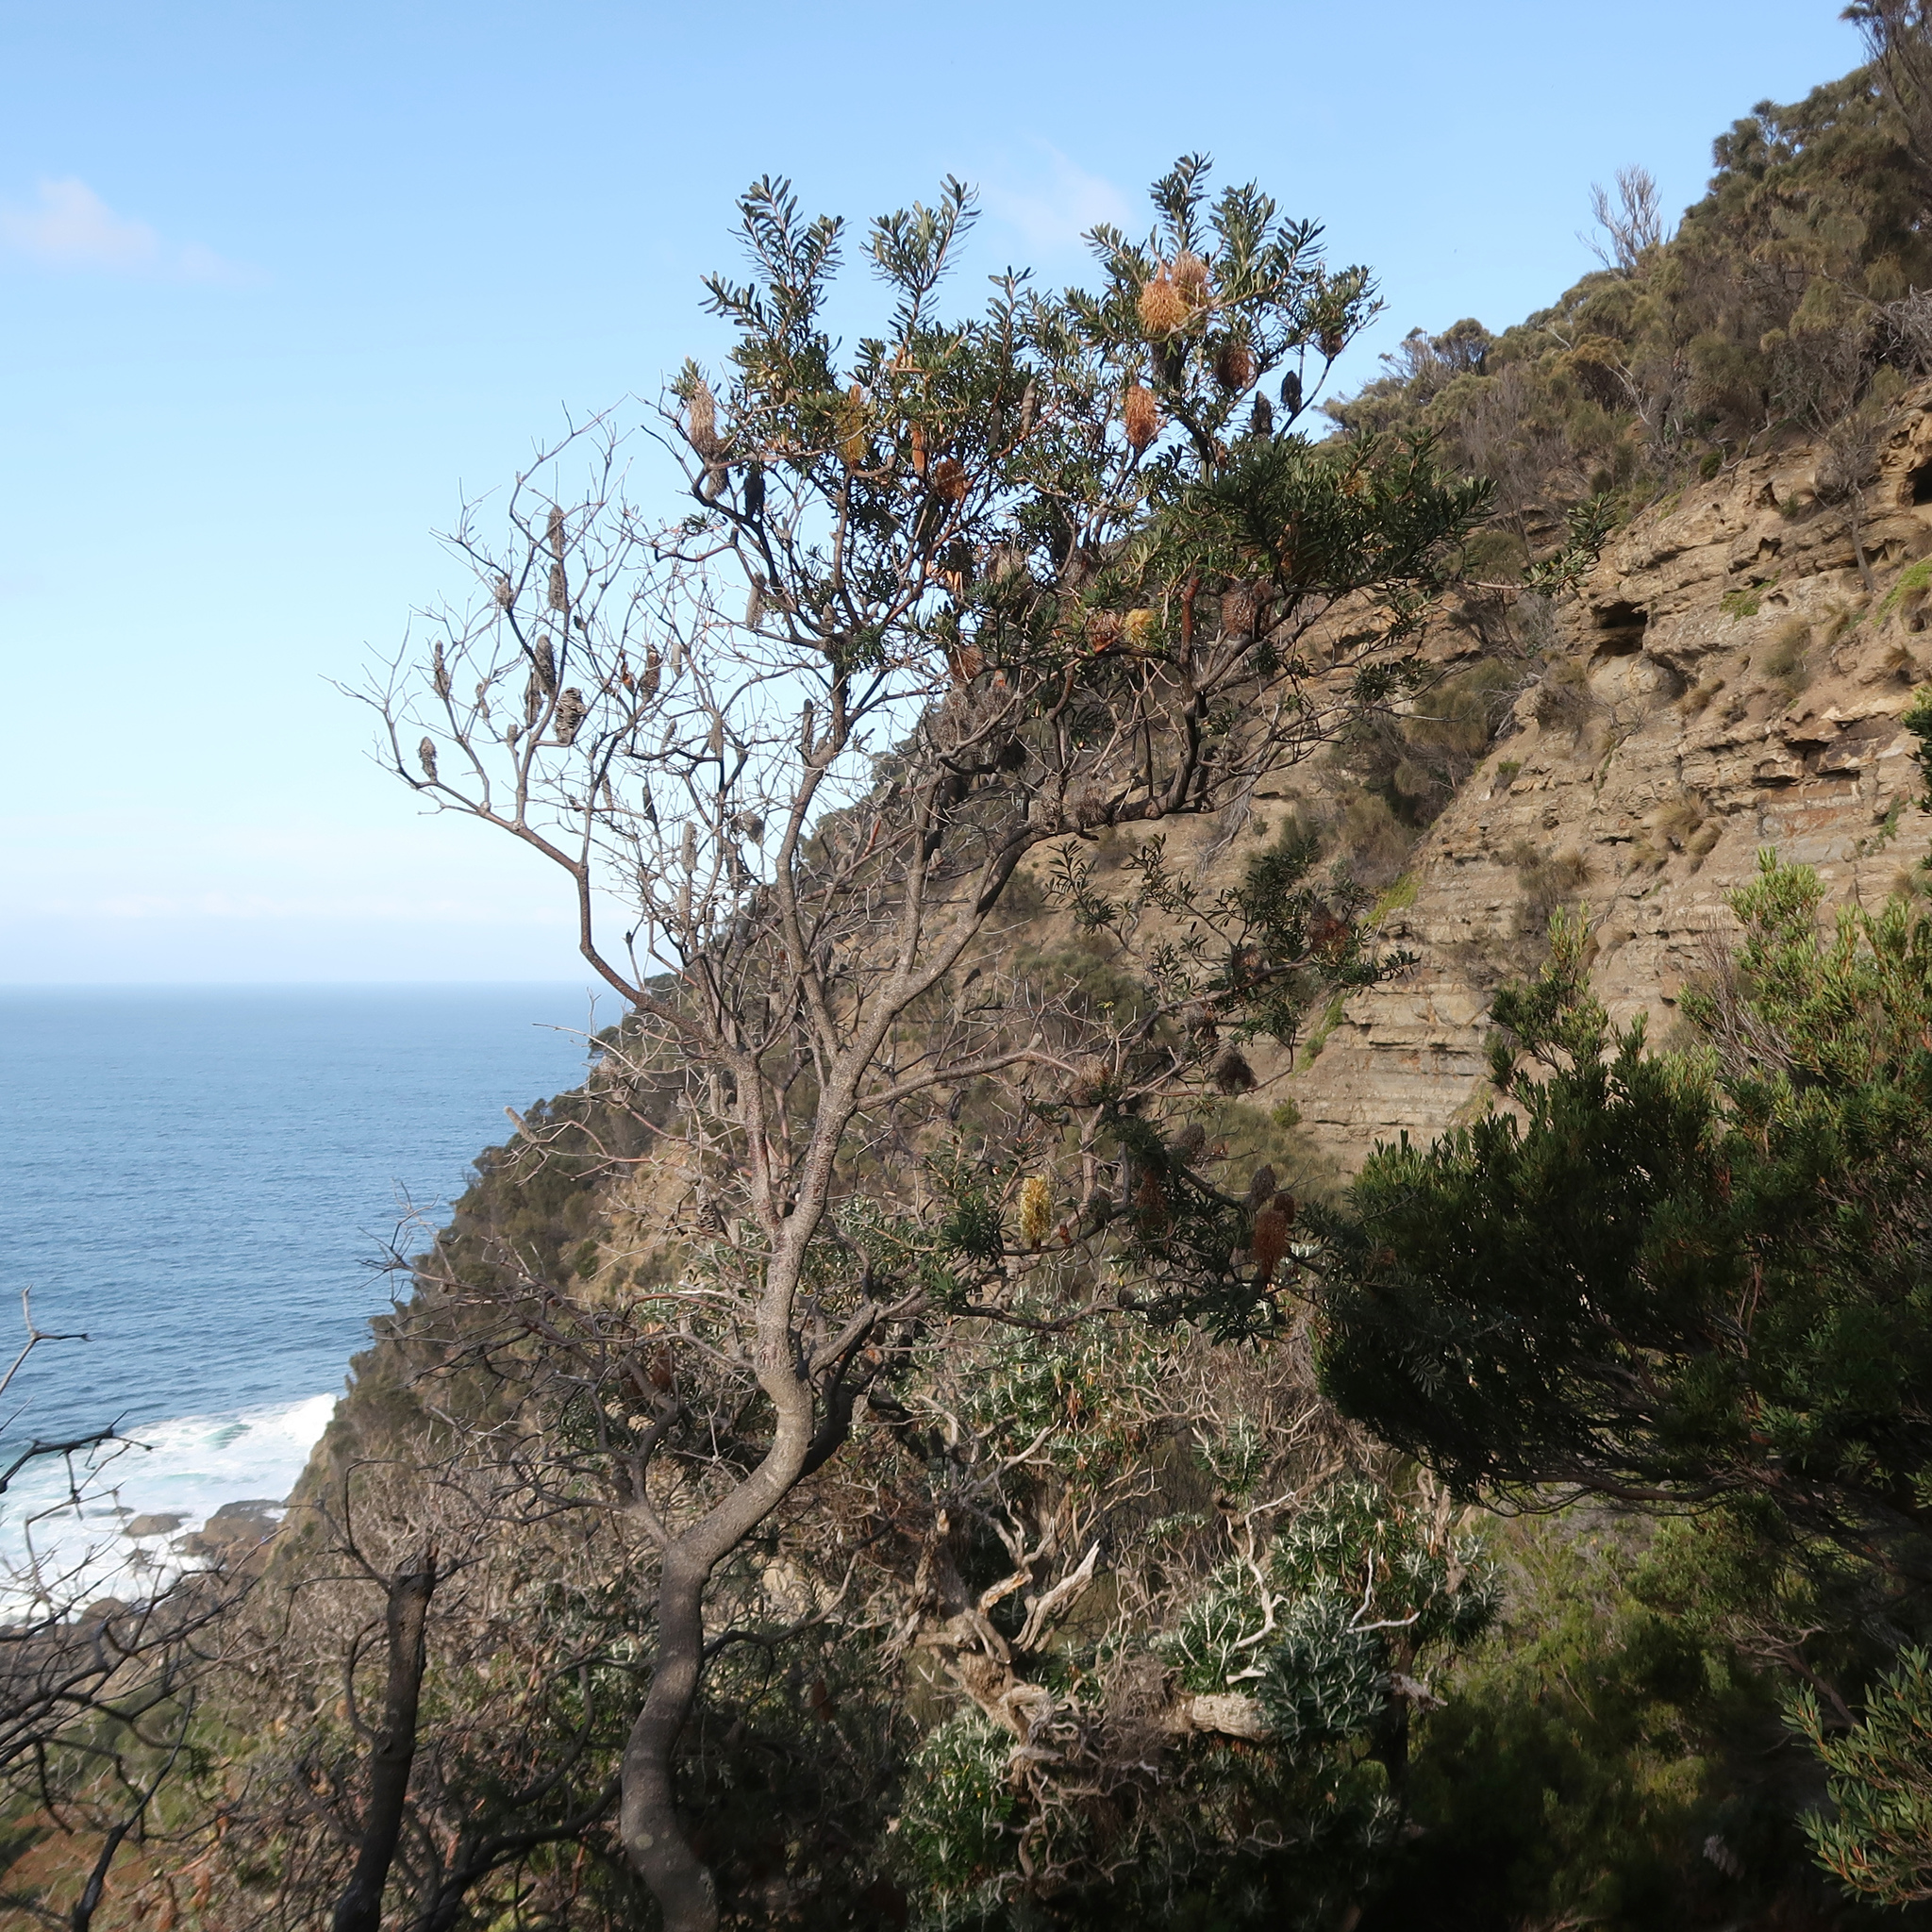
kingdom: Plantae
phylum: Tracheophyta
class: Magnoliopsida
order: Proteales
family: Proteaceae
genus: Banksia
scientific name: Banksia marginata
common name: Silver banksia
